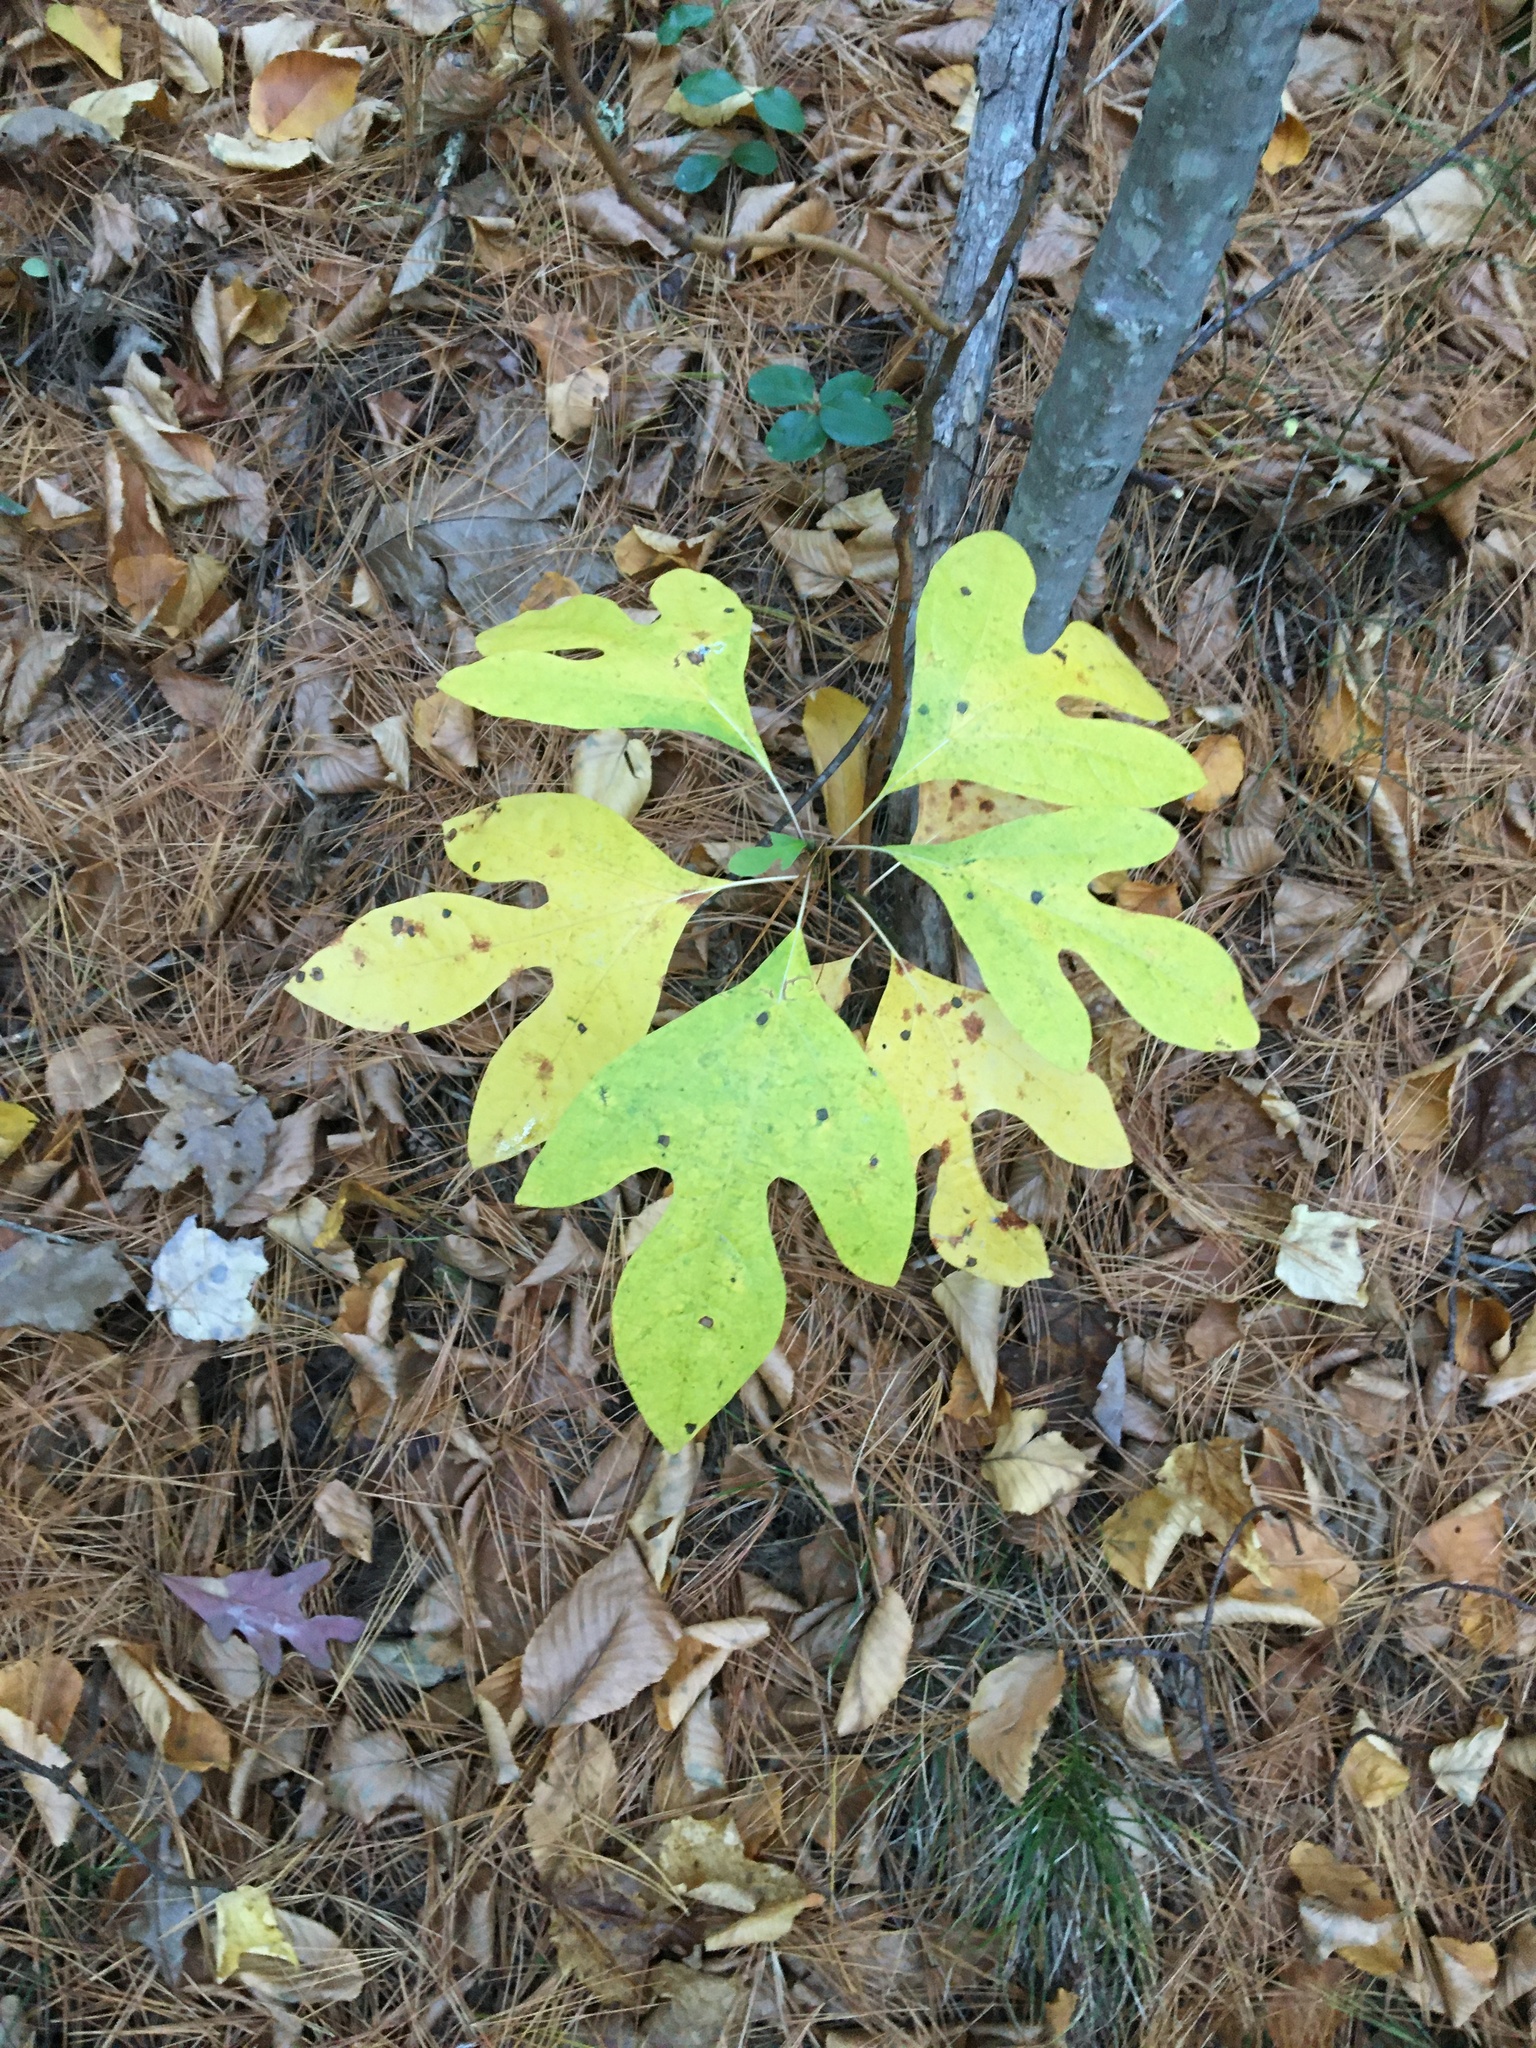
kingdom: Plantae
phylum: Tracheophyta
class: Magnoliopsida
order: Laurales
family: Lauraceae
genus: Sassafras
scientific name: Sassafras albidum
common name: Sassafras
